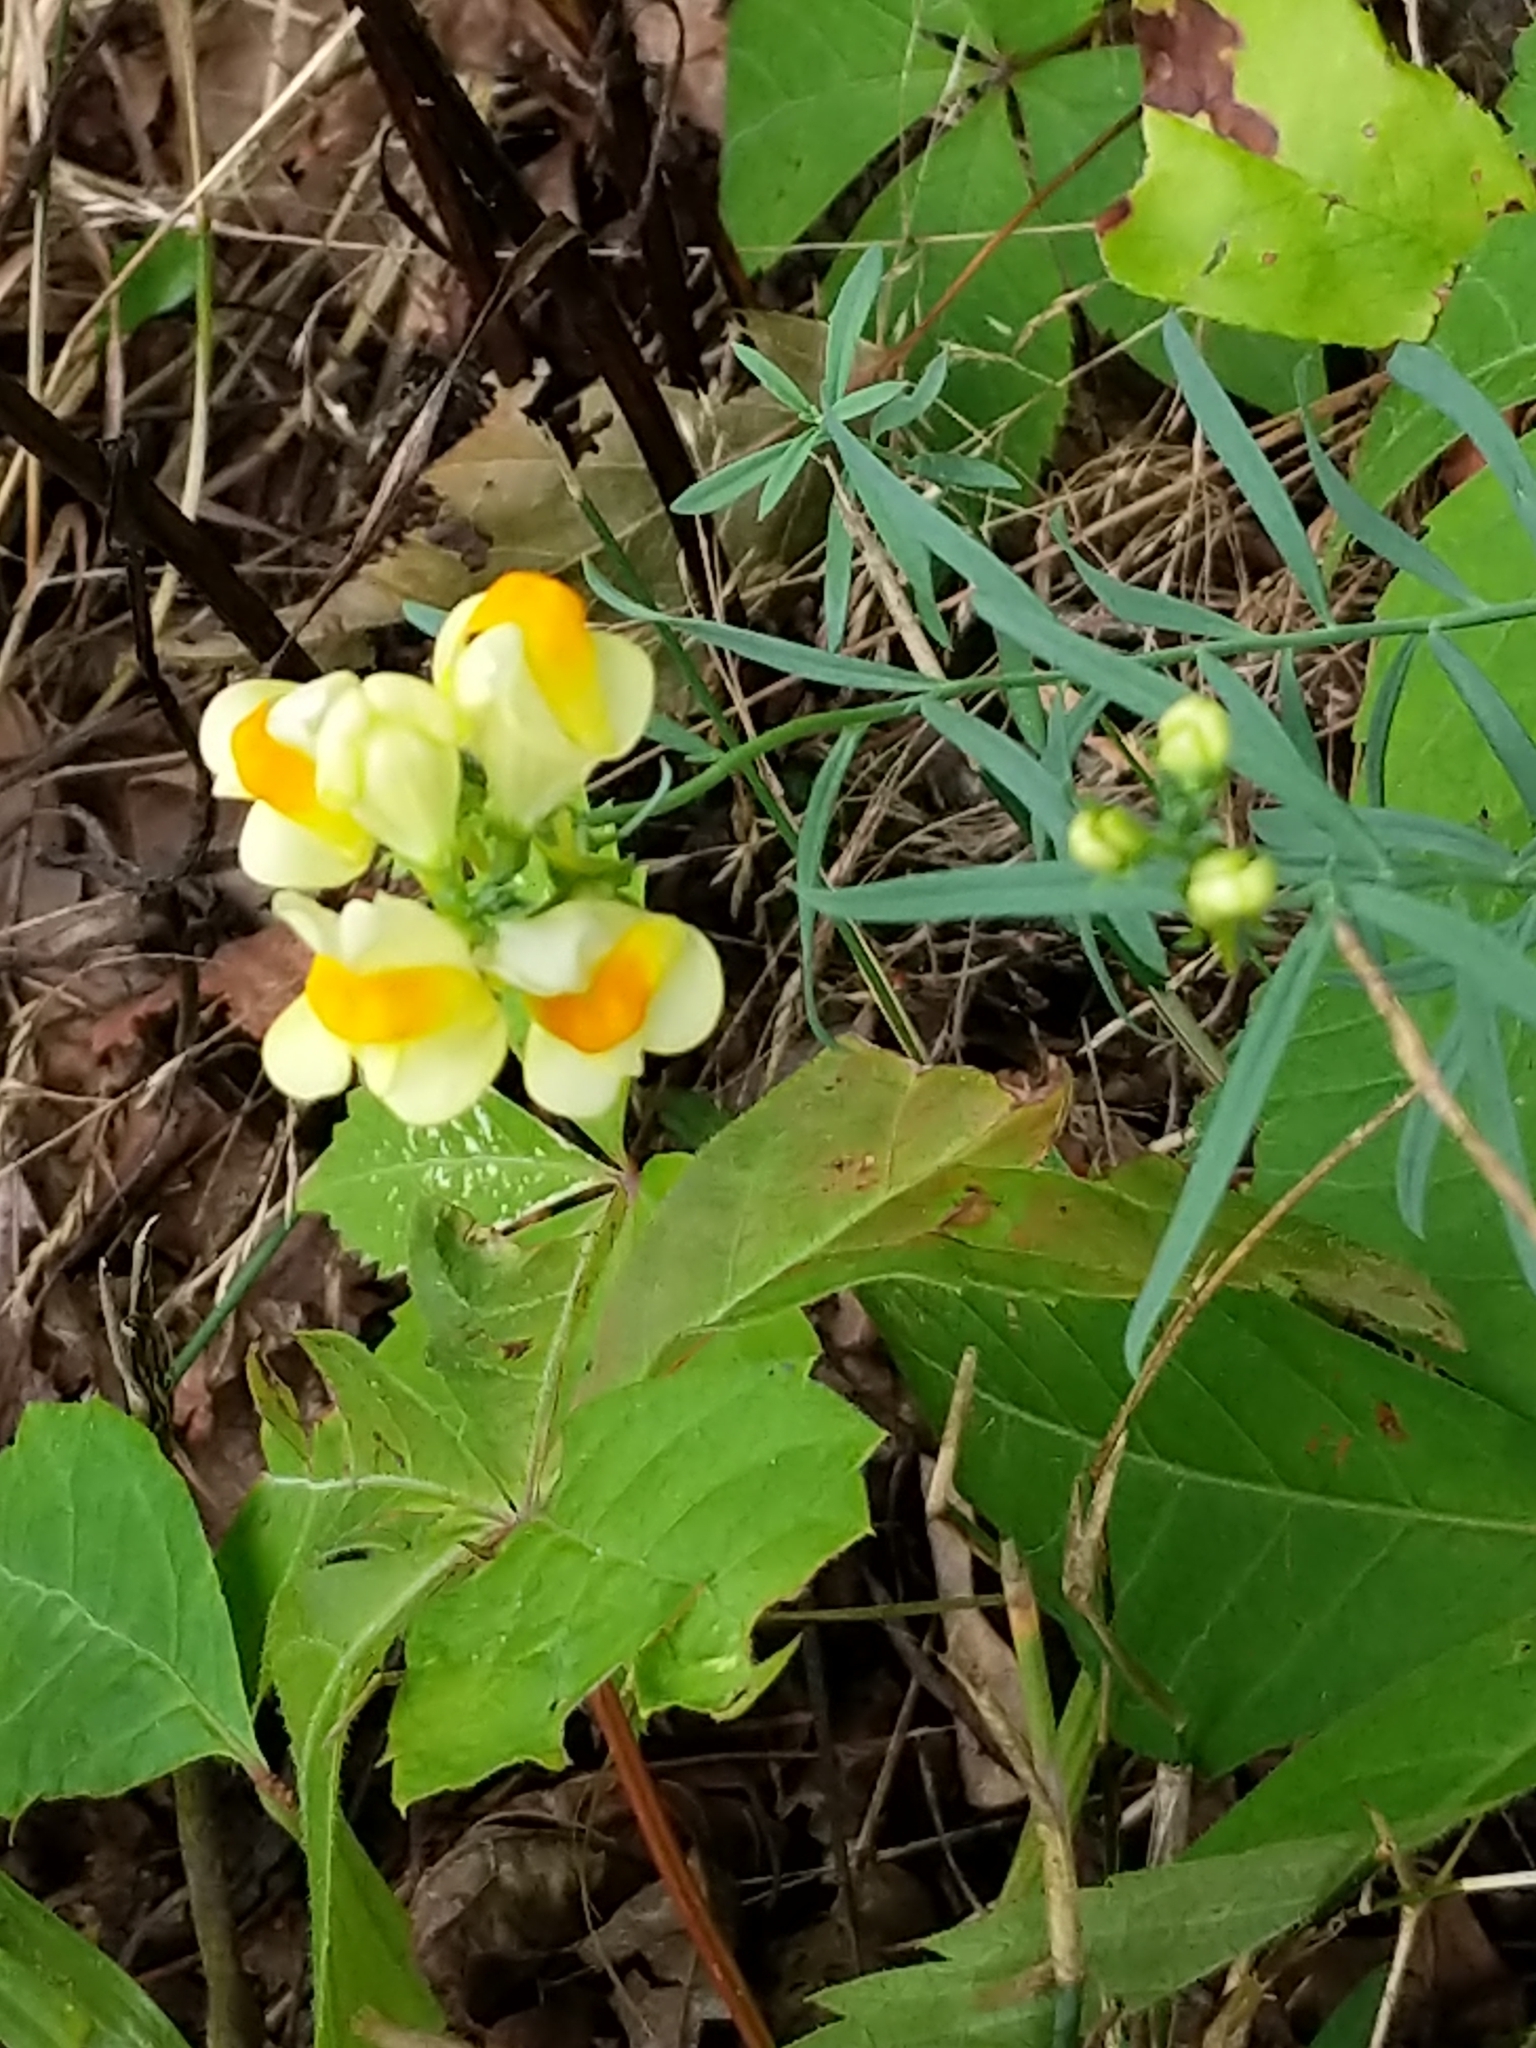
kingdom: Plantae
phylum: Tracheophyta
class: Magnoliopsida
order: Lamiales
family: Plantaginaceae
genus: Linaria
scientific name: Linaria vulgaris
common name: Butter and eggs
